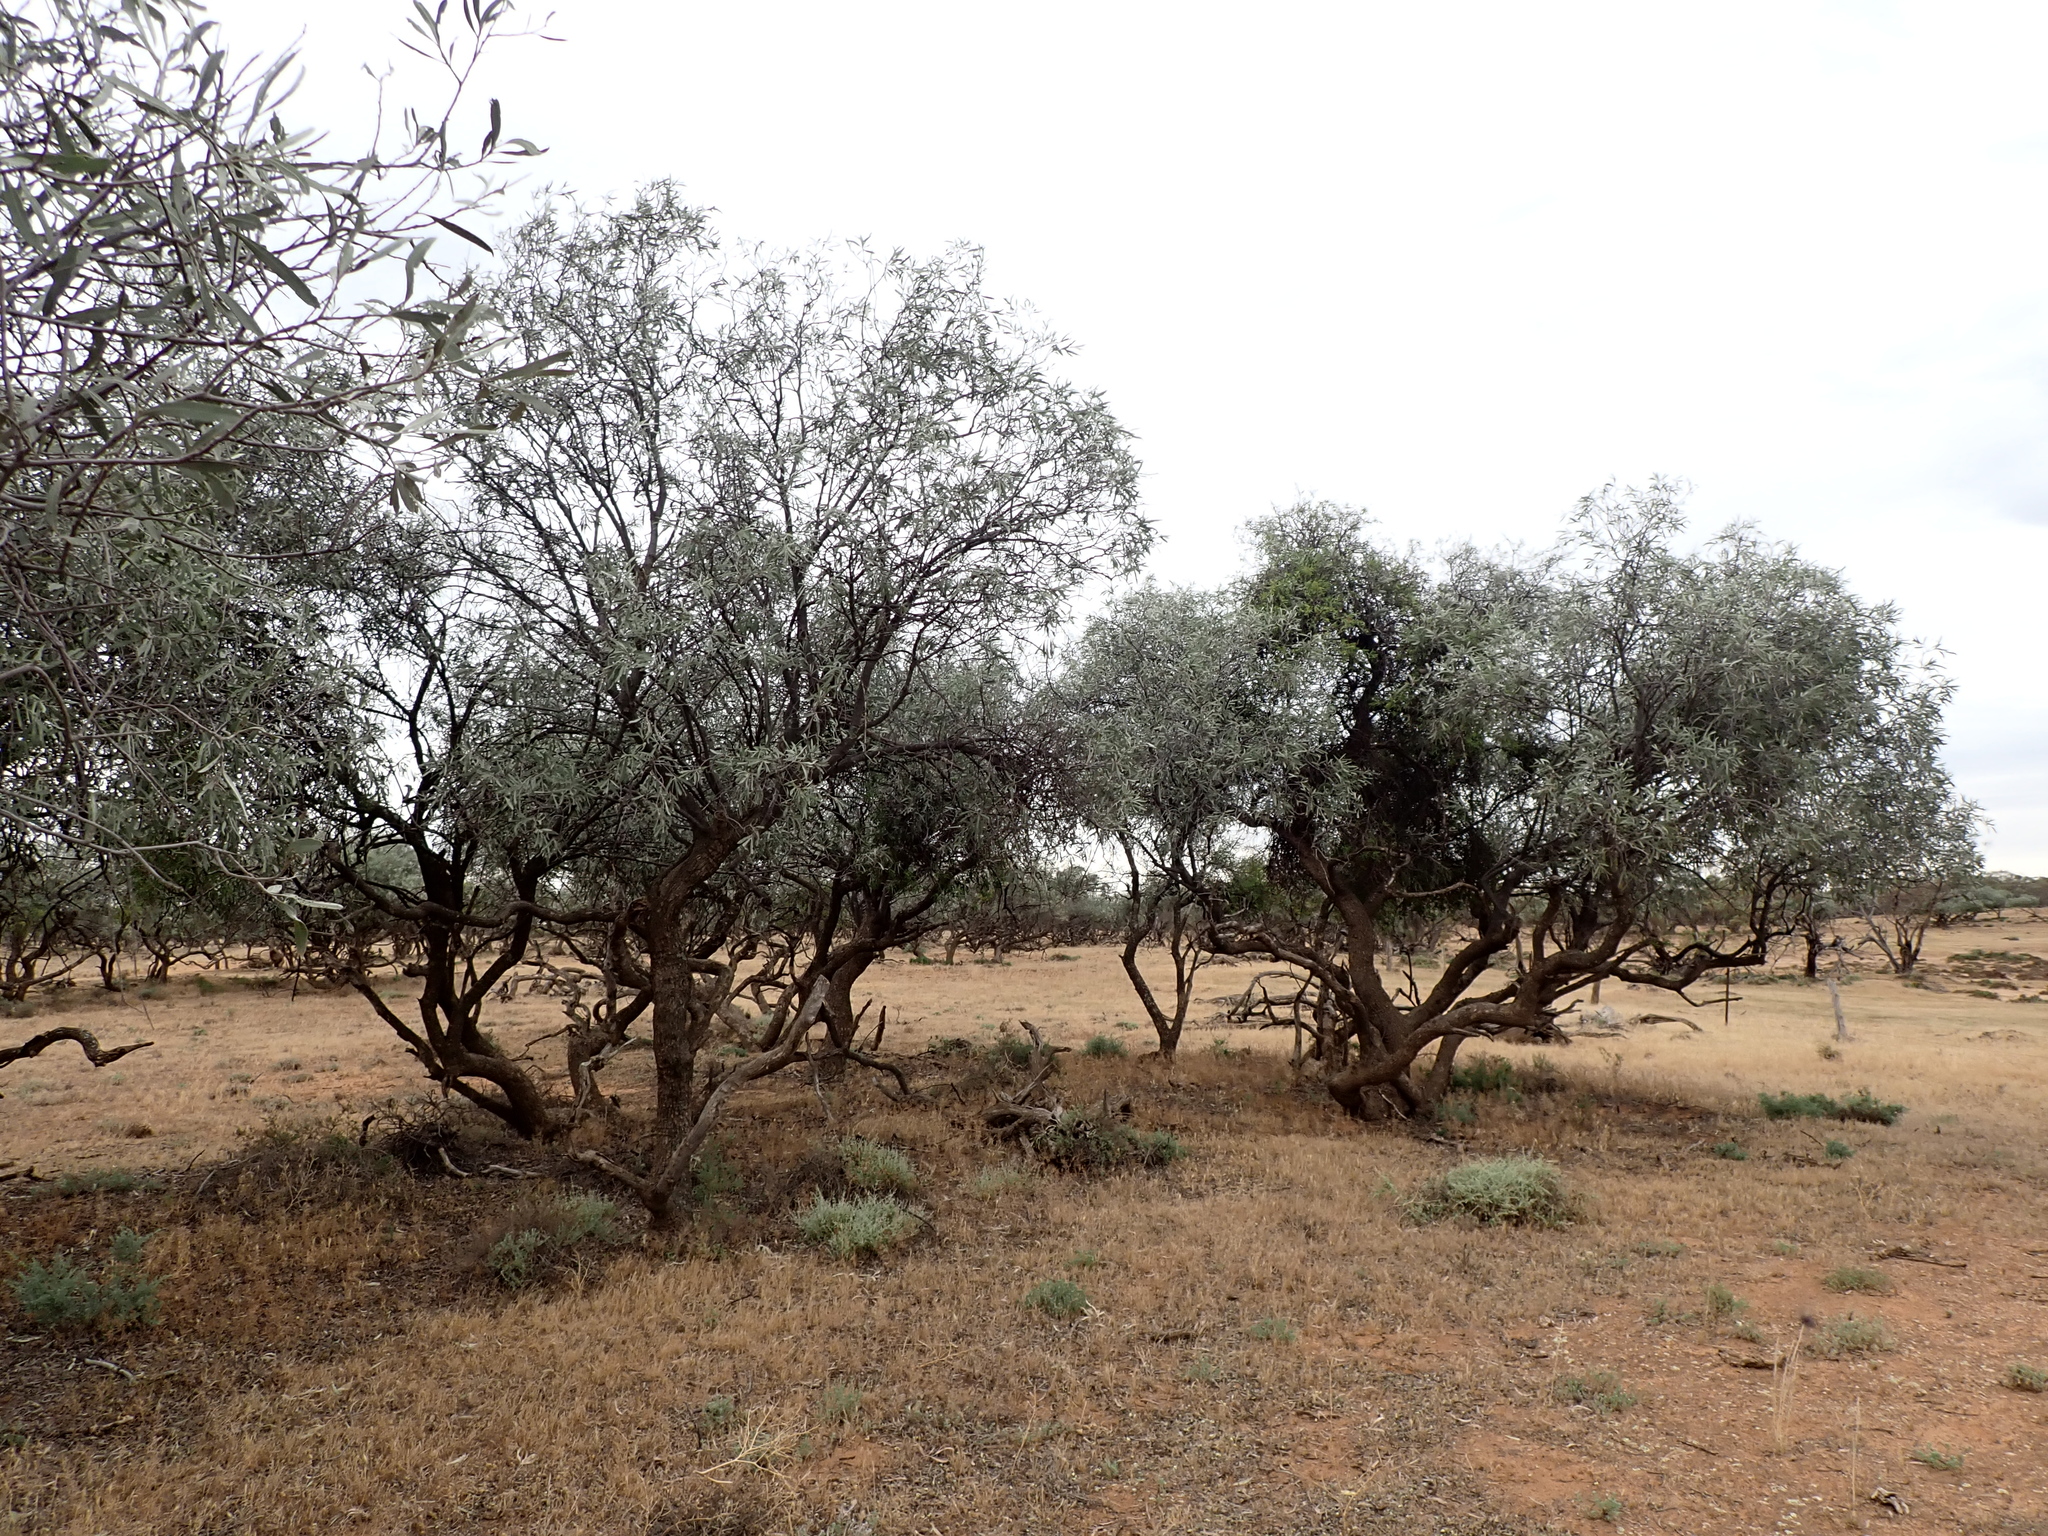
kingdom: Plantae
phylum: Tracheophyta
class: Magnoliopsida
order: Sapindales
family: Sapindaceae
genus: Alectryon
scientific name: Alectryon oleifolius
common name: Australian rosewood
